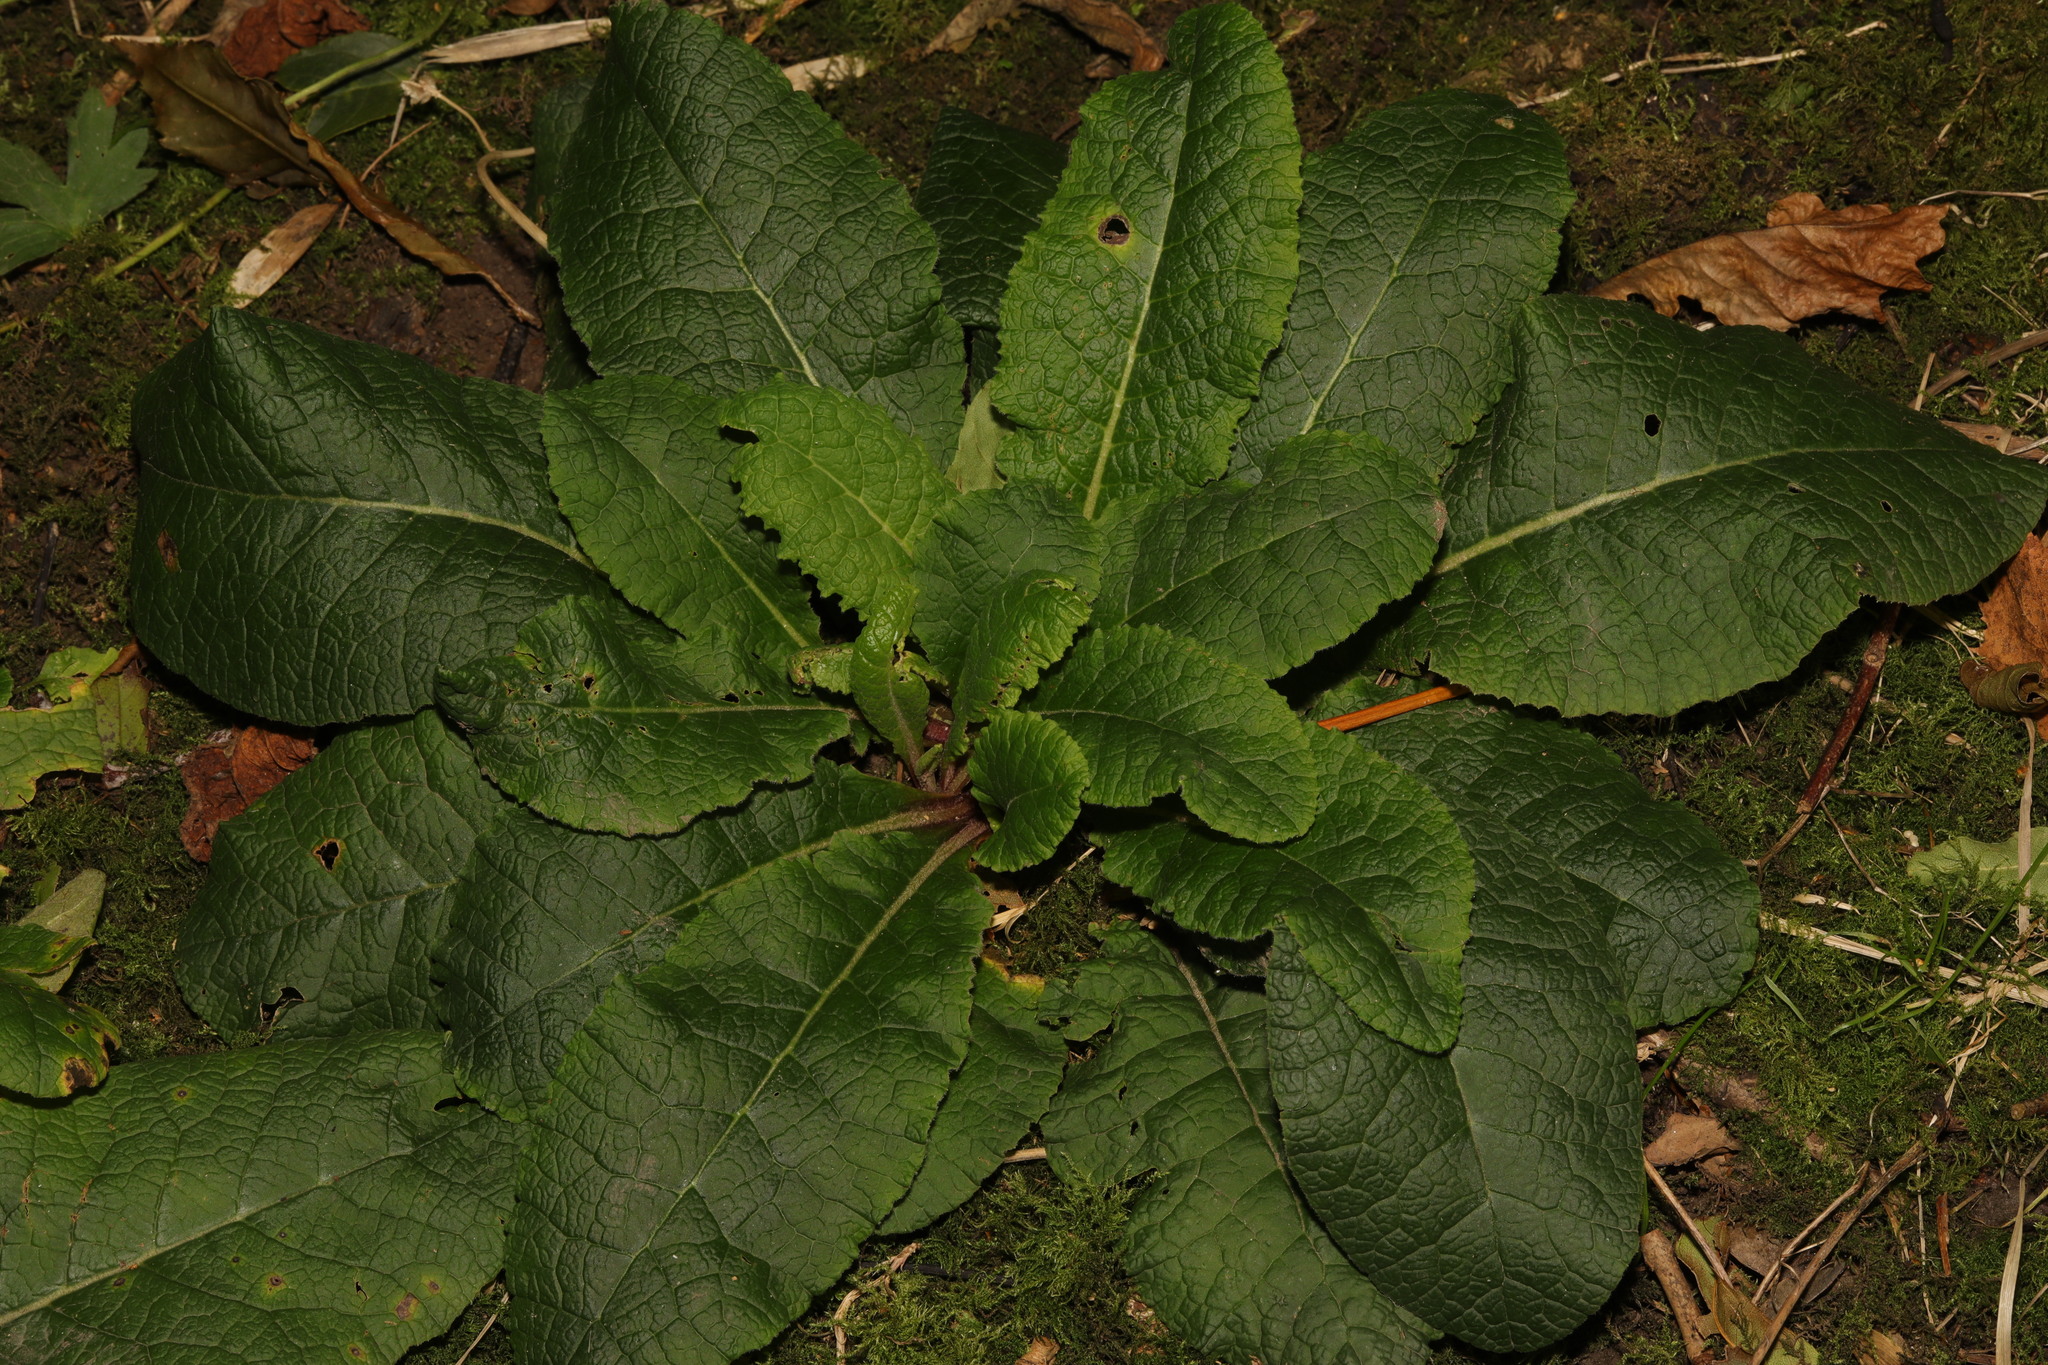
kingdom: Plantae
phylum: Tracheophyta
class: Magnoliopsida
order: Ericales
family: Primulaceae
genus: Primula
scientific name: Primula vulgaris
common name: Primrose
